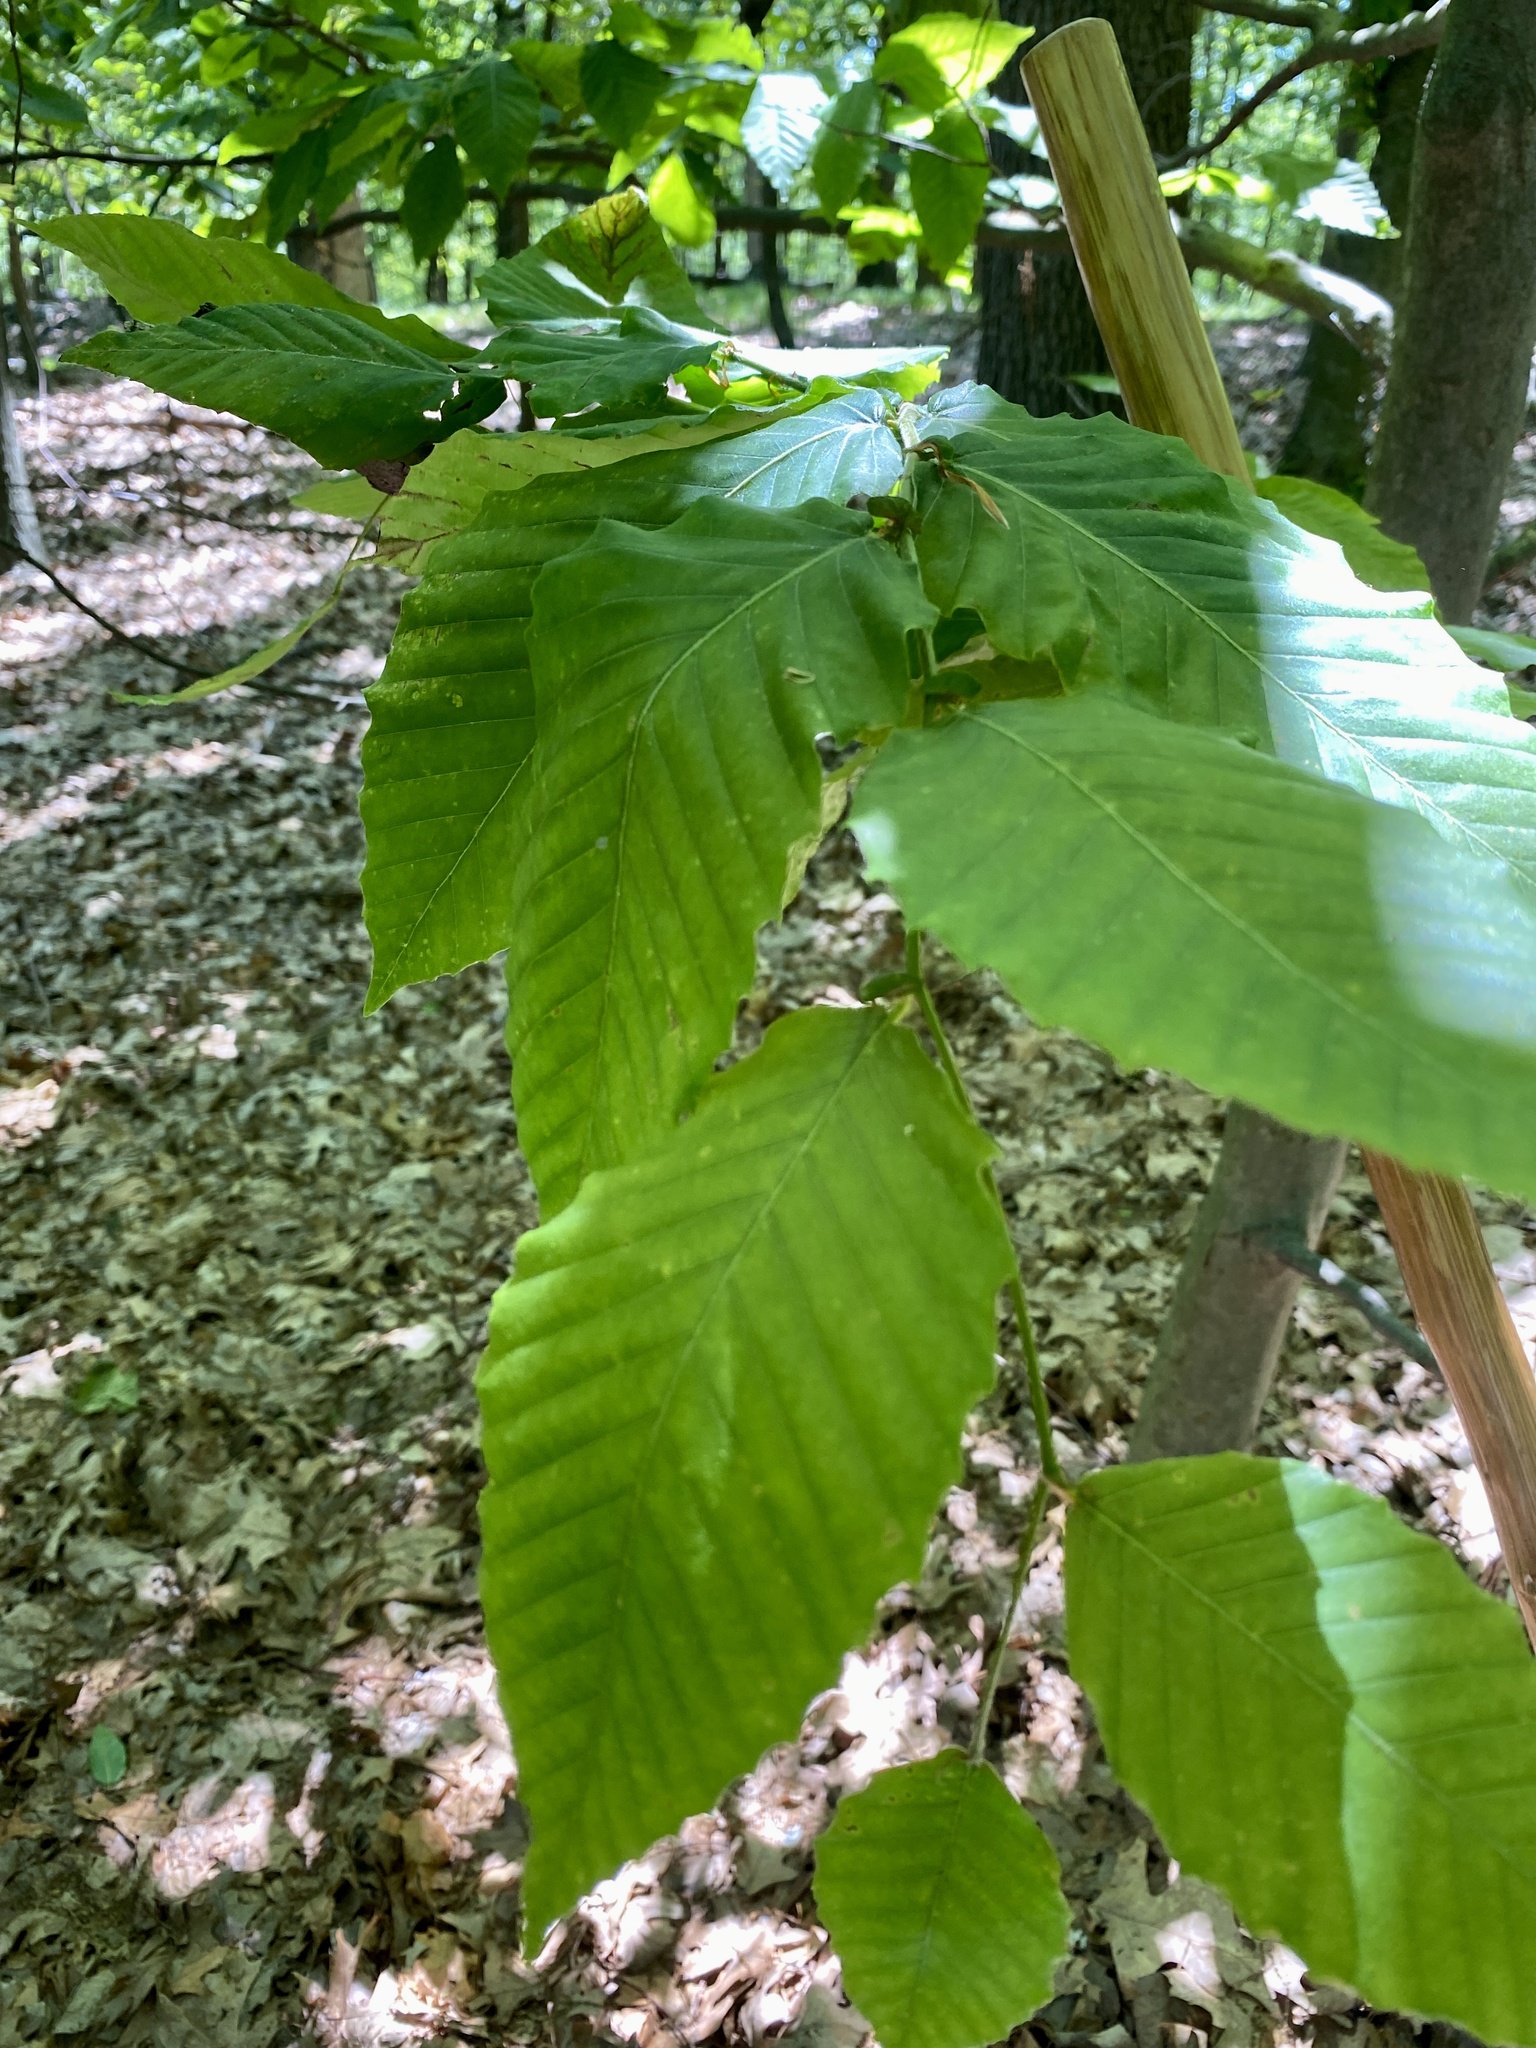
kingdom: Plantae
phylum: Tracheophyta
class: Magnoliopsida
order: Fagales
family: Fagaceae
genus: Fagus
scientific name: Fagus grandifolia
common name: American beech
